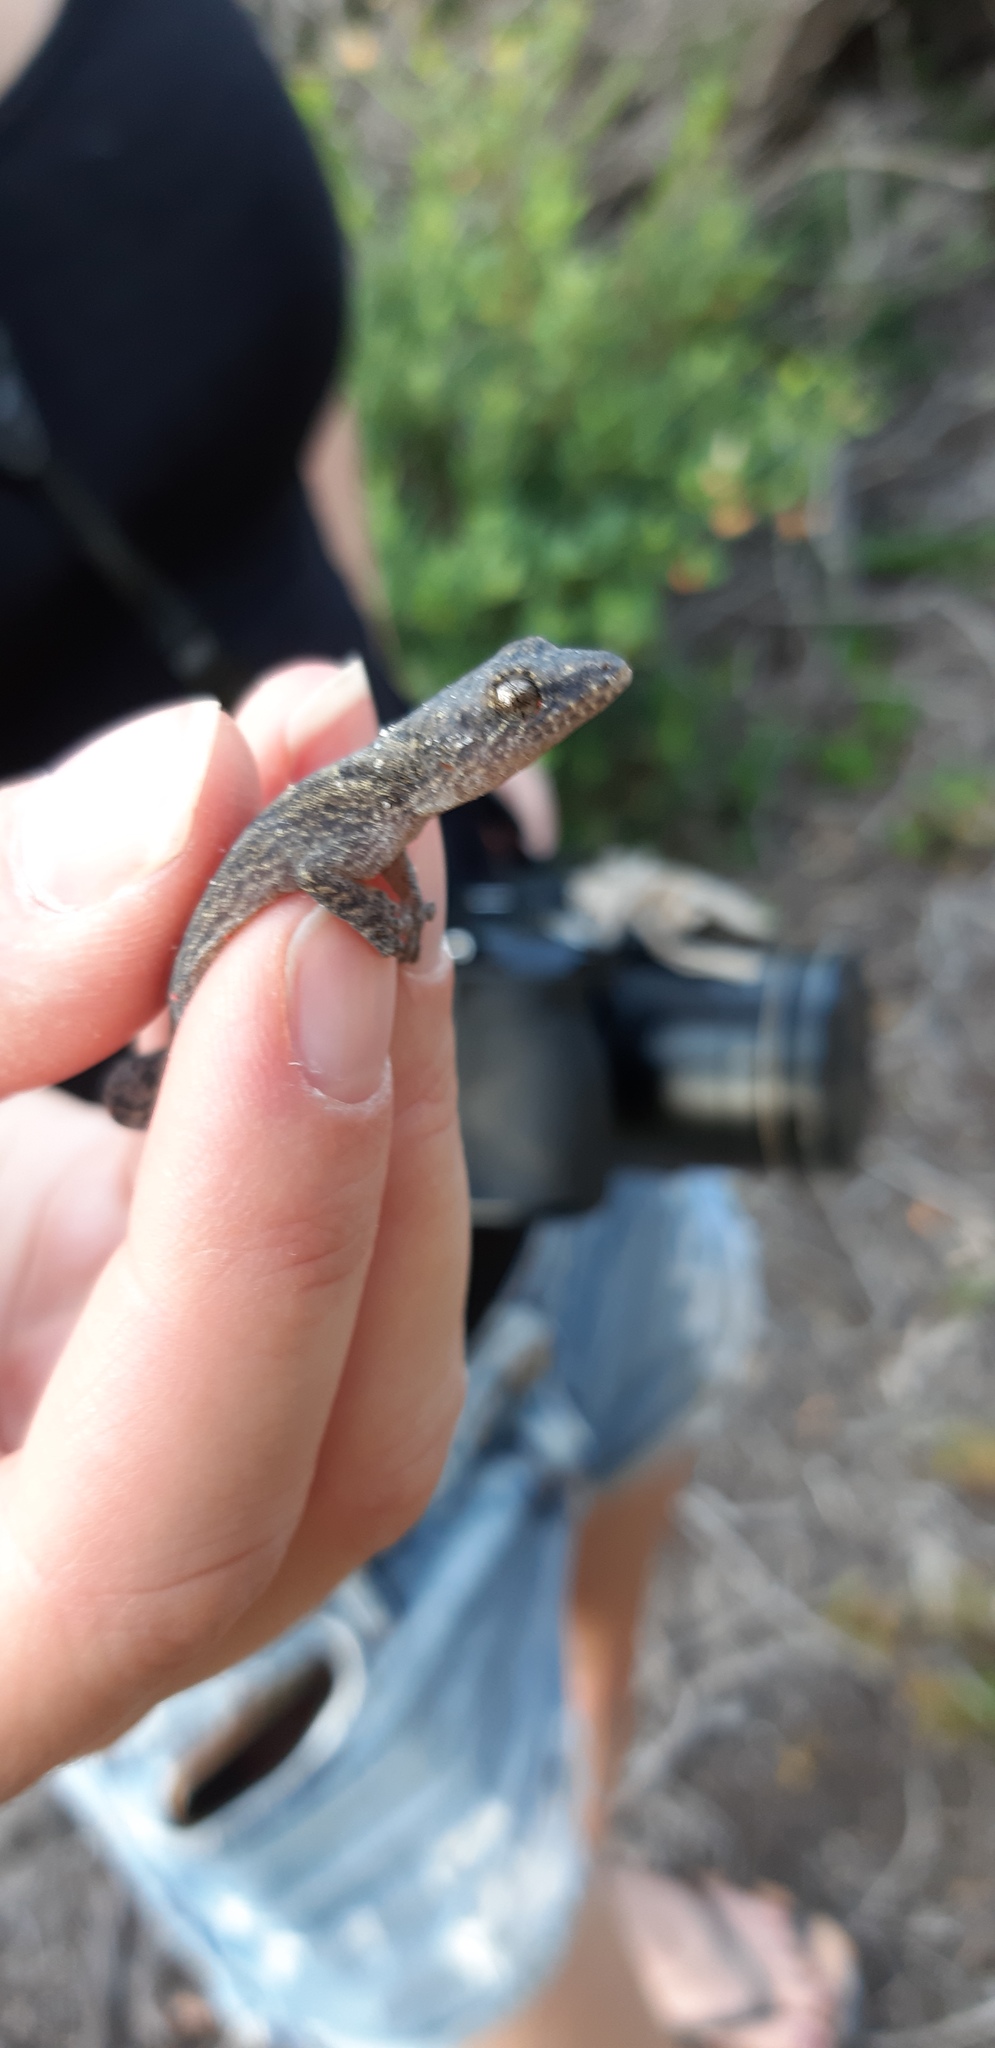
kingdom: Animalia
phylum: Chordata
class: Squamata
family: Gekkonidae
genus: Afrogecko
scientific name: Afrogecko porphyreus
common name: Marbled leaf-toed gecko
